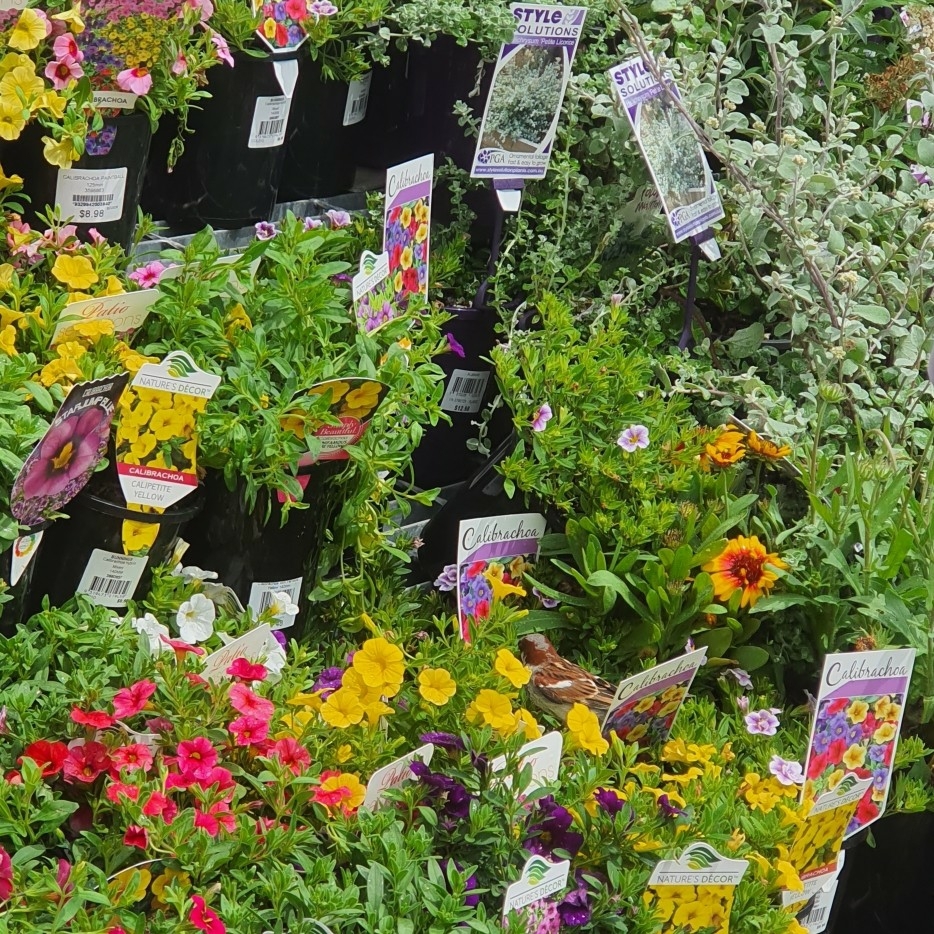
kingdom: Animalia
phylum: Chordata
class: Aves
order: Passeriformes
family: Passeridae
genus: Passer
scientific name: Passer domesticus
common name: House sparrow
